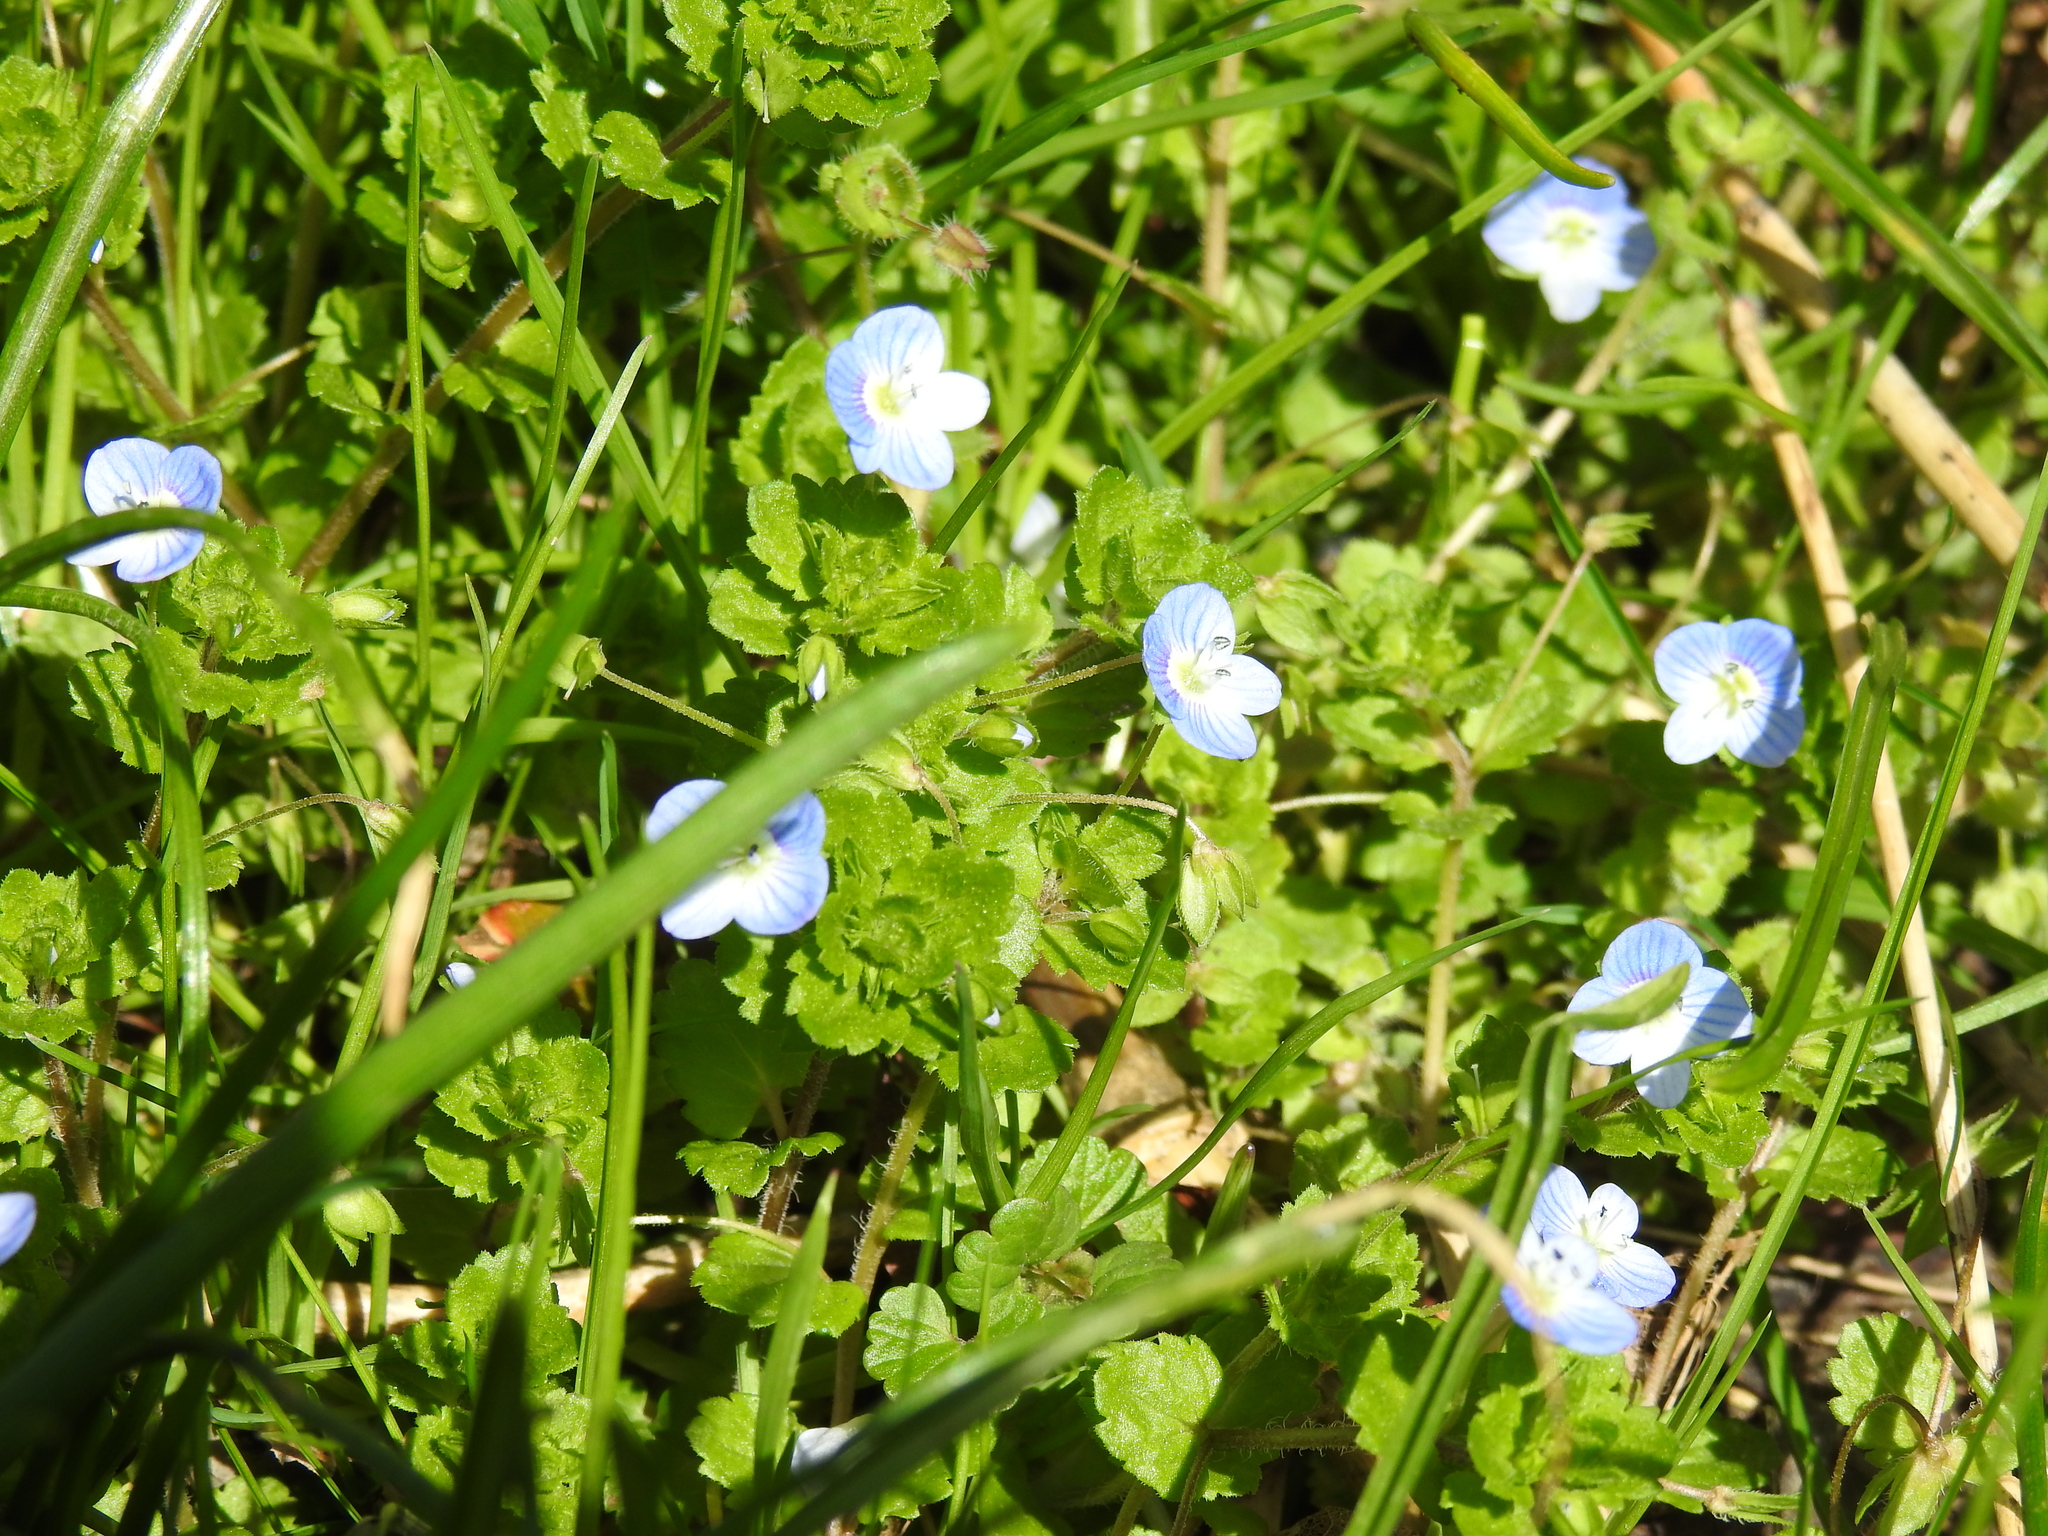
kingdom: Plantae
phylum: Tracheophyta
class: Magnoliopsida
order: Lamiales
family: Plantaginaceae
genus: Veronica
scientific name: Veronica persica
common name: Common field-speedwell
